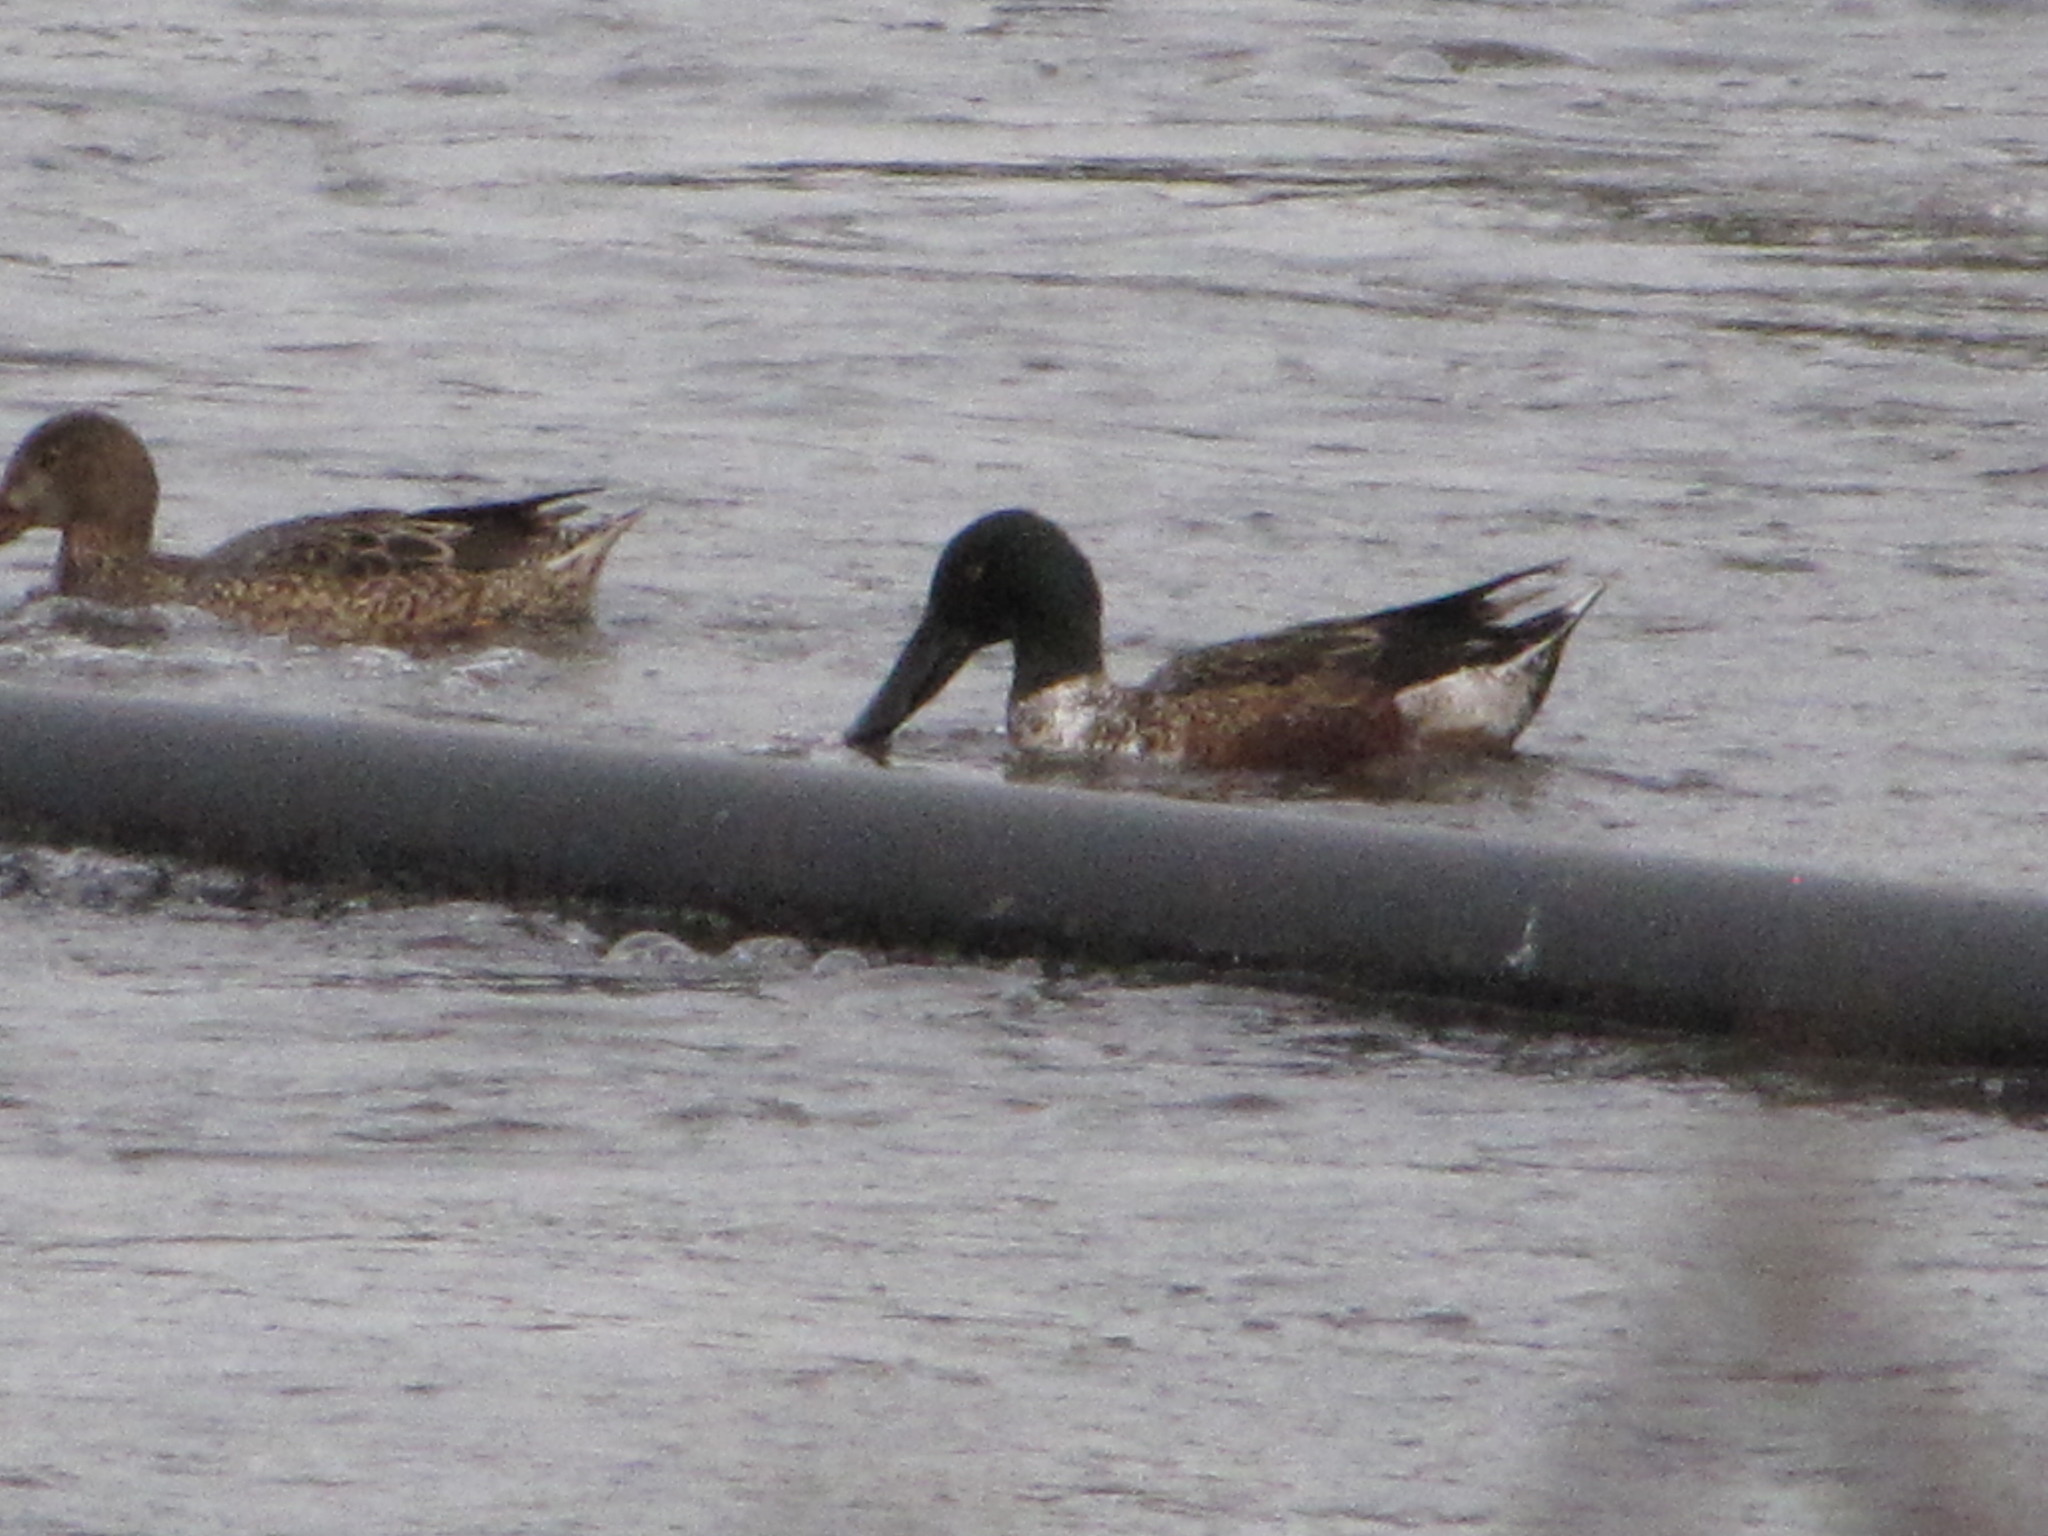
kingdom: Animalia
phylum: Chordata
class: Aves
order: Anseriformes
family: Anatidae
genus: Spatula
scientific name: Spatula clypeata
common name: Northern shoveler
